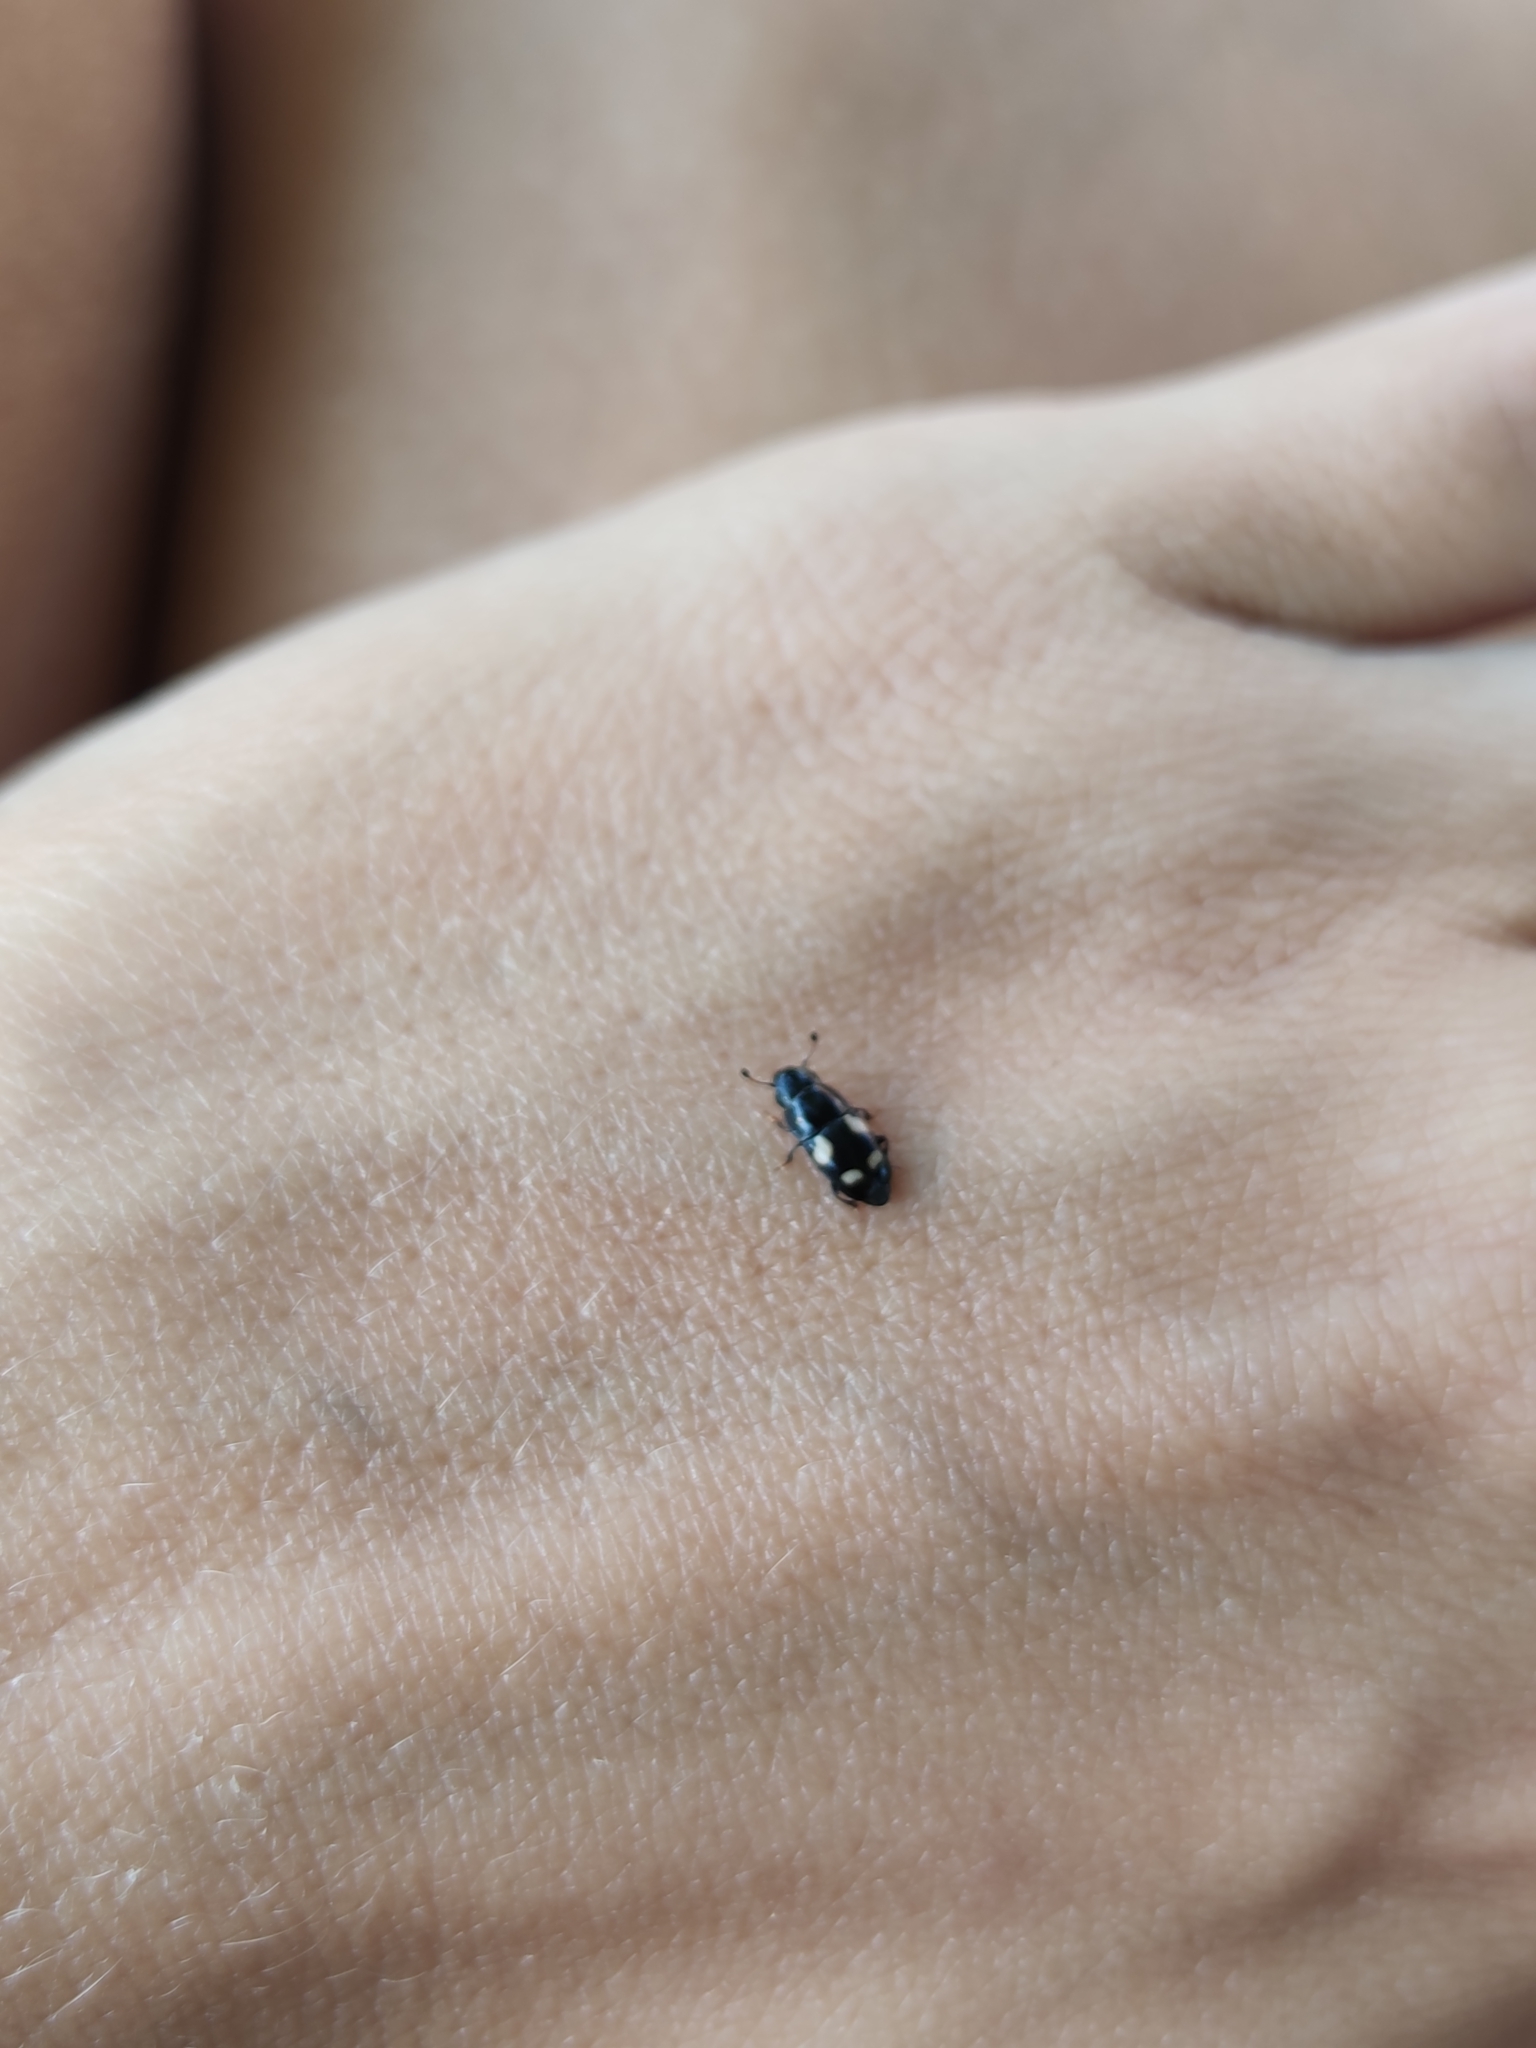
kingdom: Animalia
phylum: Arthropoda
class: Insecta
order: Coleoptera
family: Nitidulidae
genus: Glischrochilus
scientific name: Glischrochilus quadrisignatus
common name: Picnic beetle
